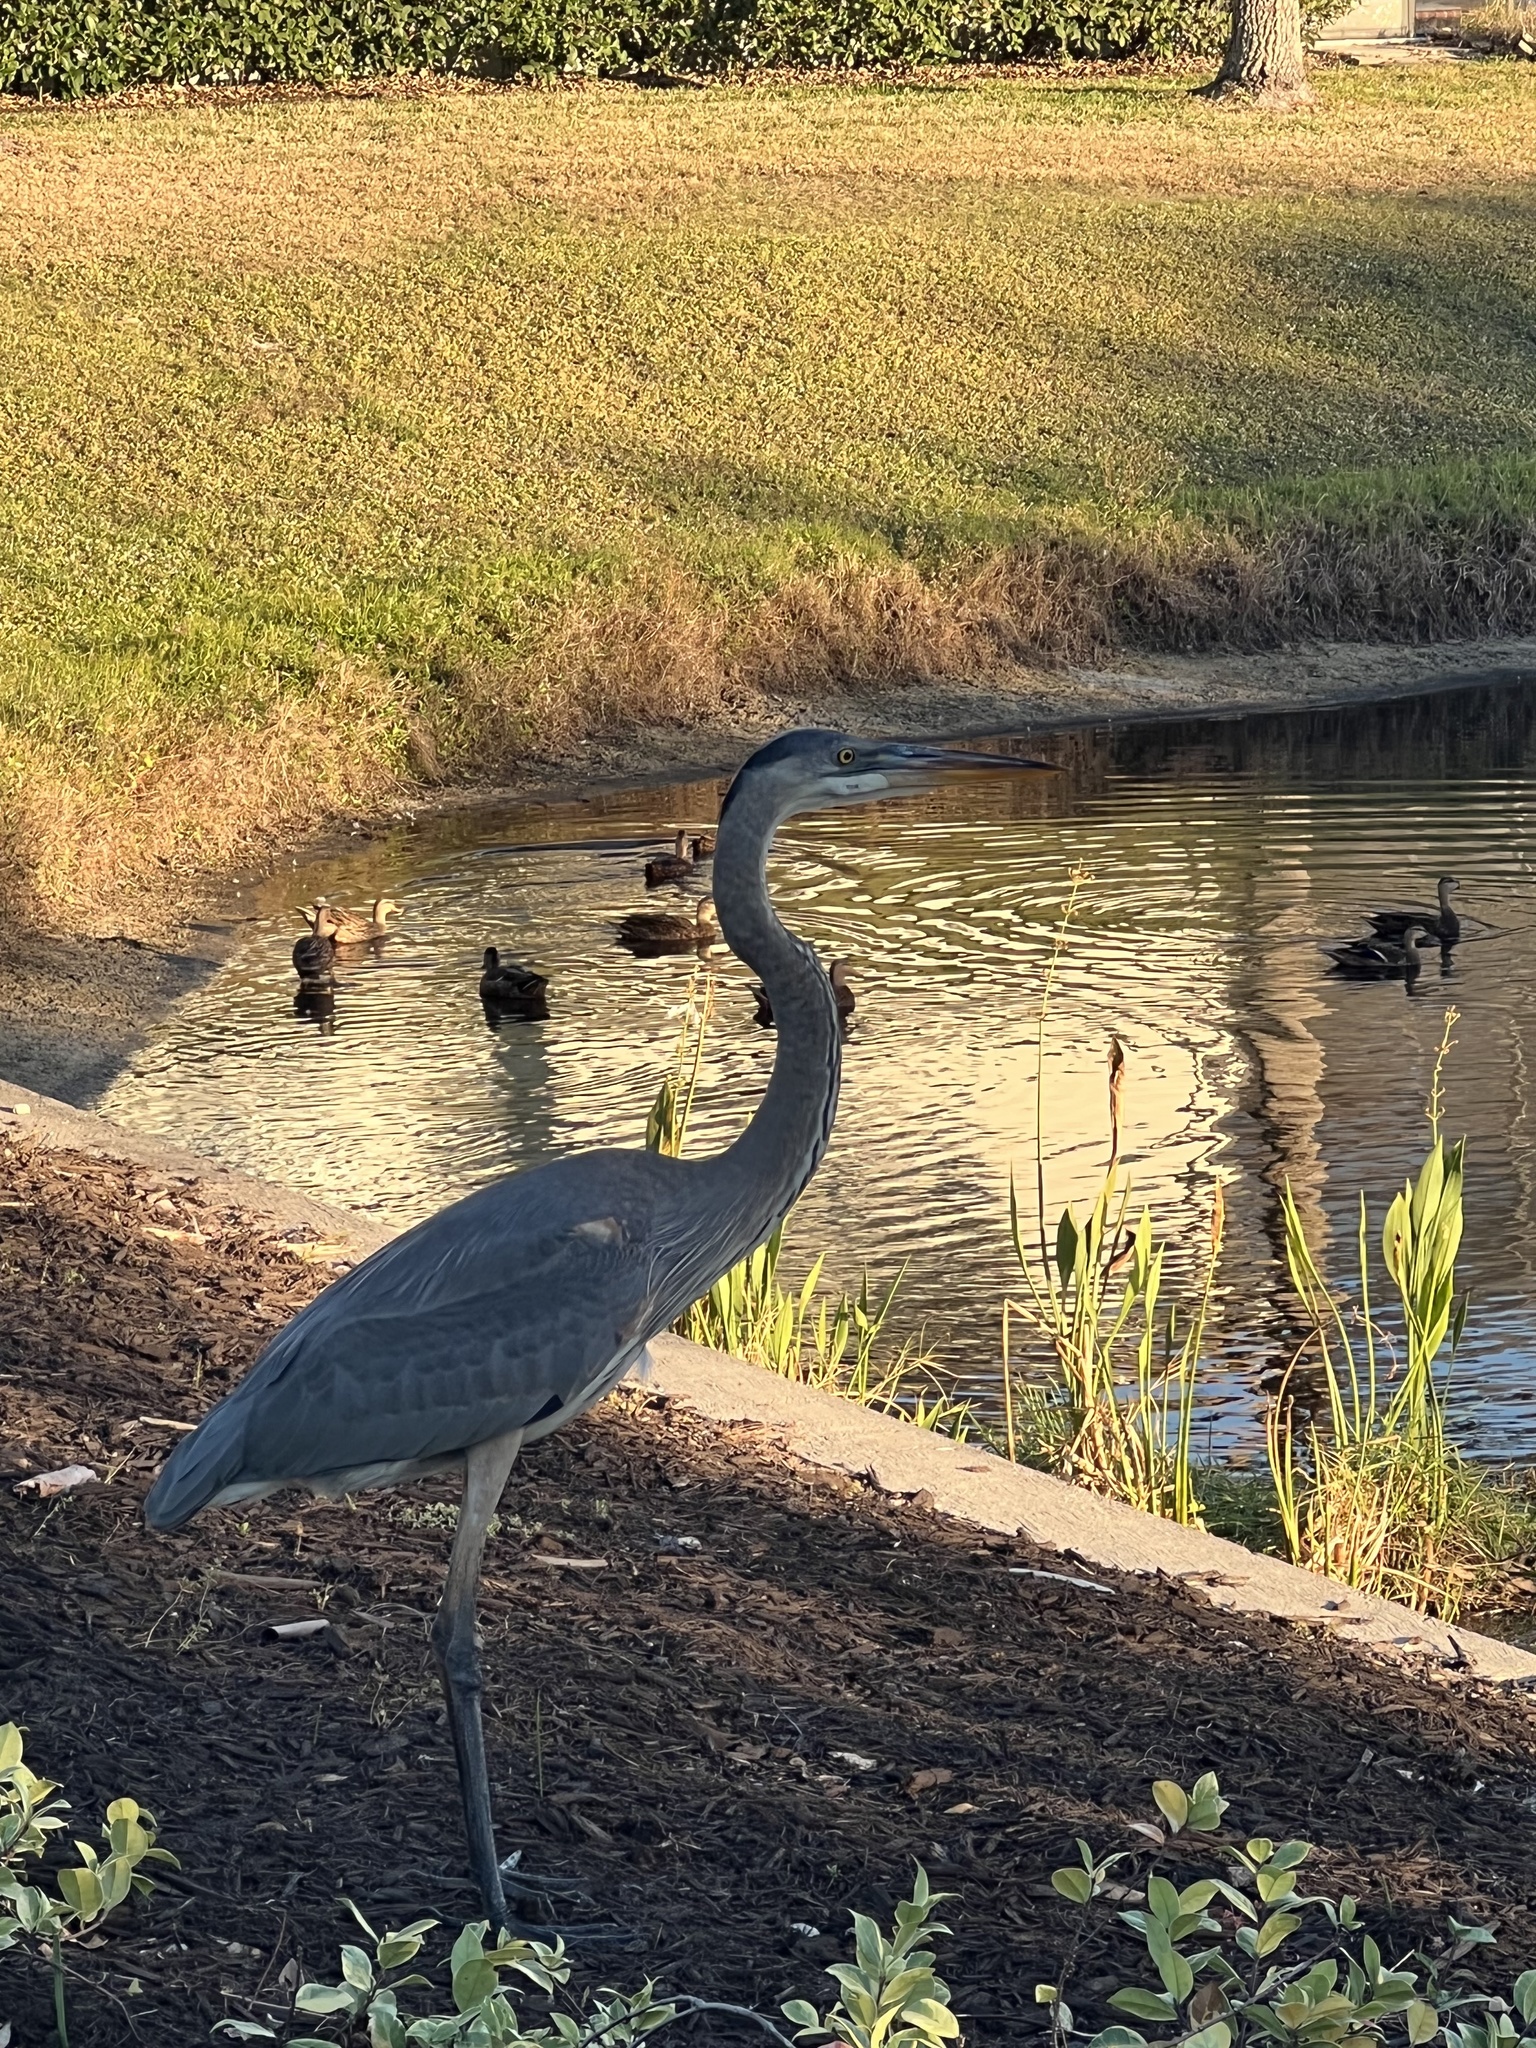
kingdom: Animalia
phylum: Chordata
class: Aves
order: Pelecaniformes
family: Ardeidae
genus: Ardea
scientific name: Ardea herodias
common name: Great blue heron
